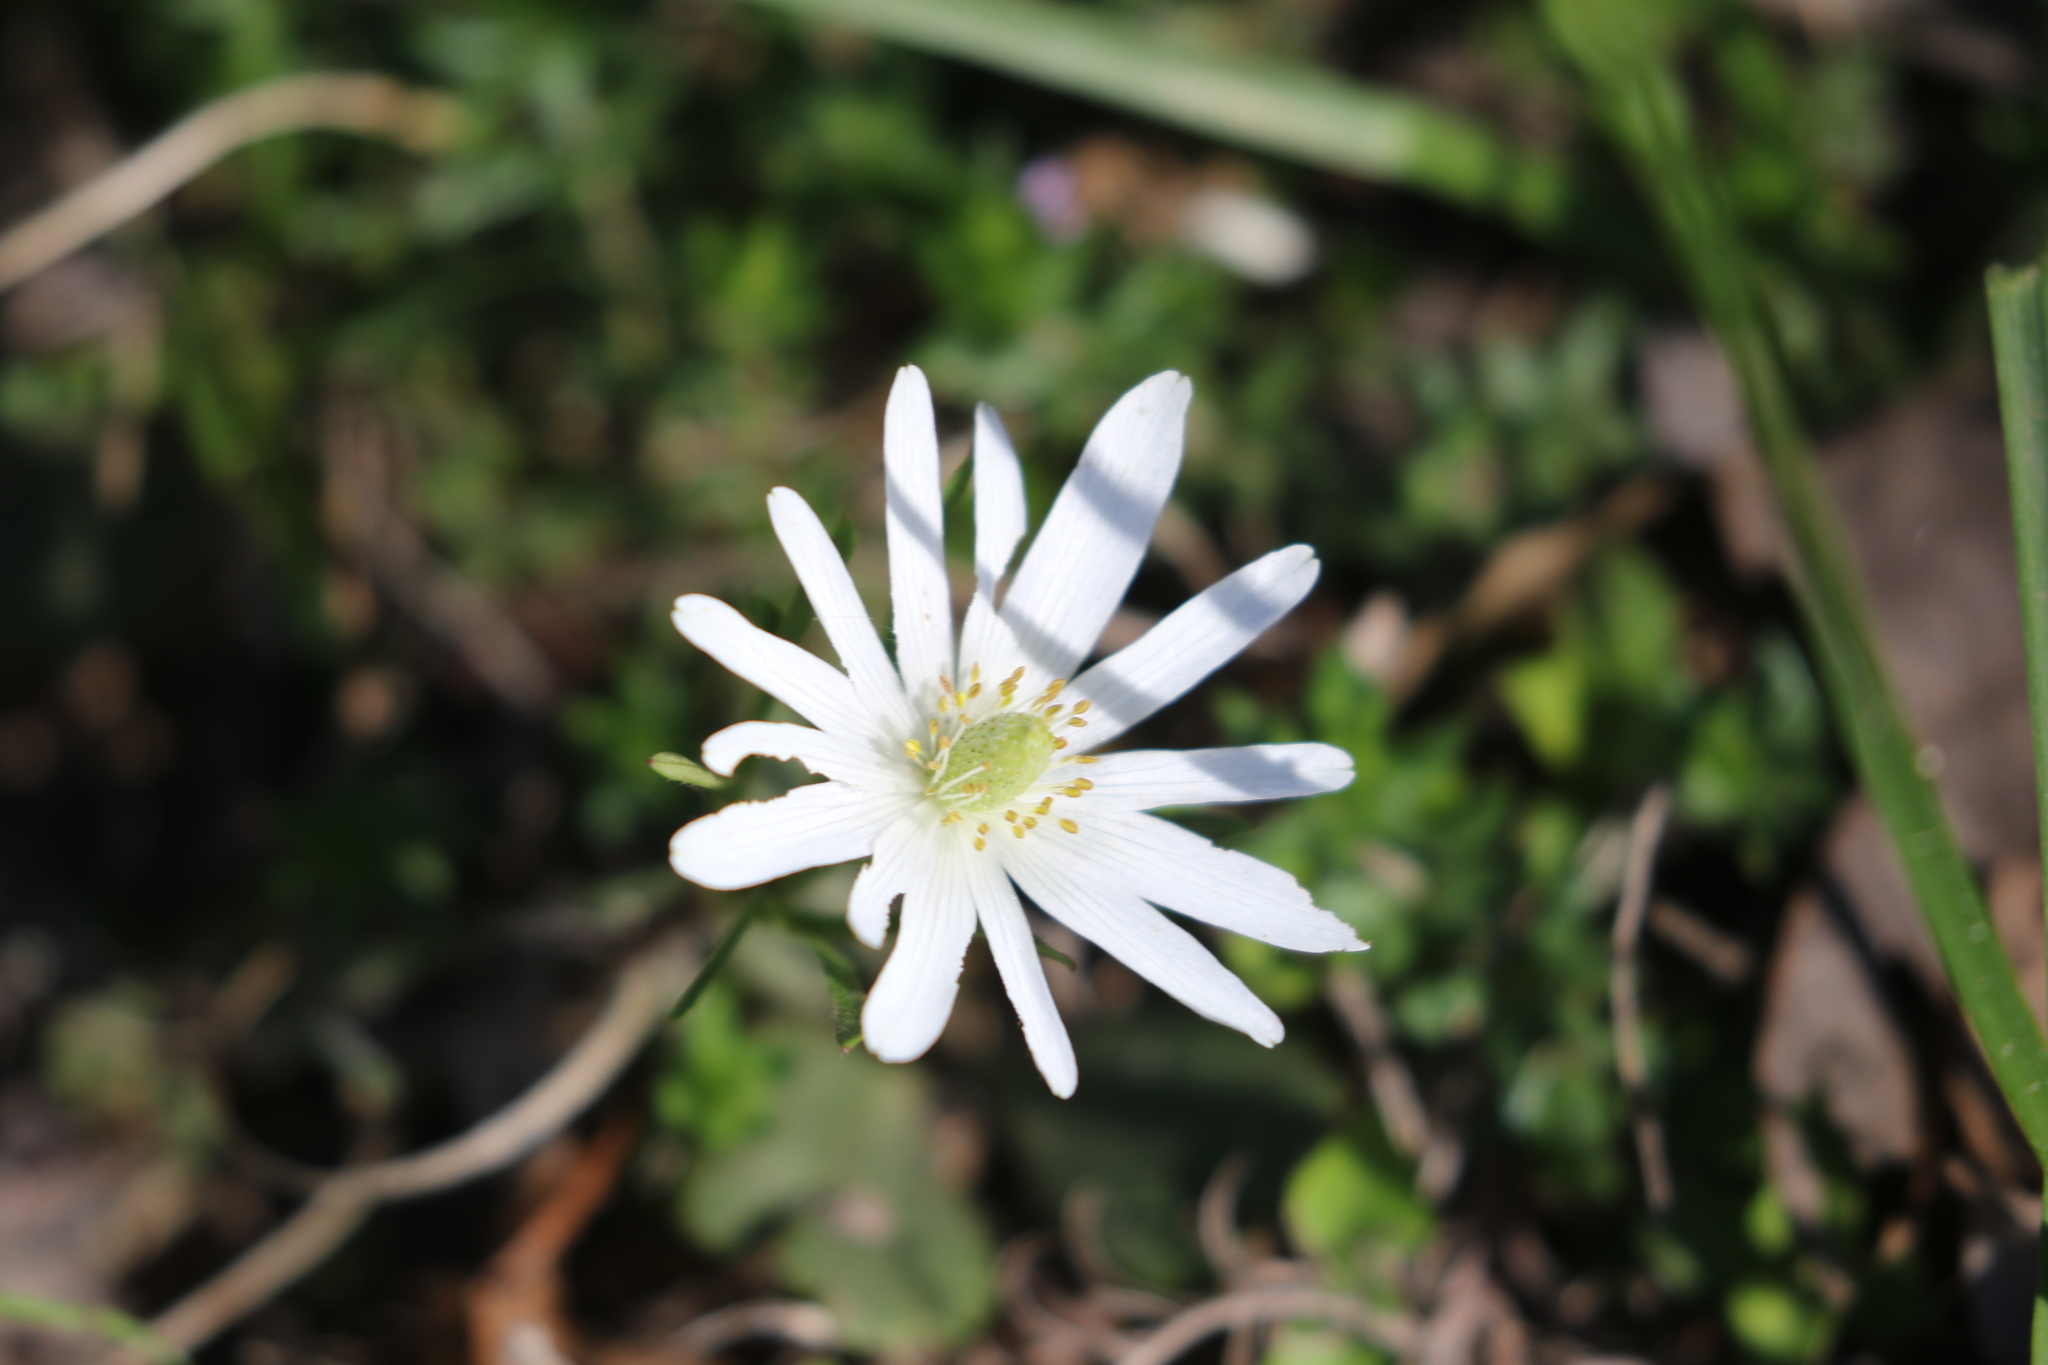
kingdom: Plantae
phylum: Tracheophyta
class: Magnoliopsida
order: Ranunculales
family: Ranunculaceae
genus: Anemone
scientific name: Anemone berlandieri
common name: Ten-petal anemone
